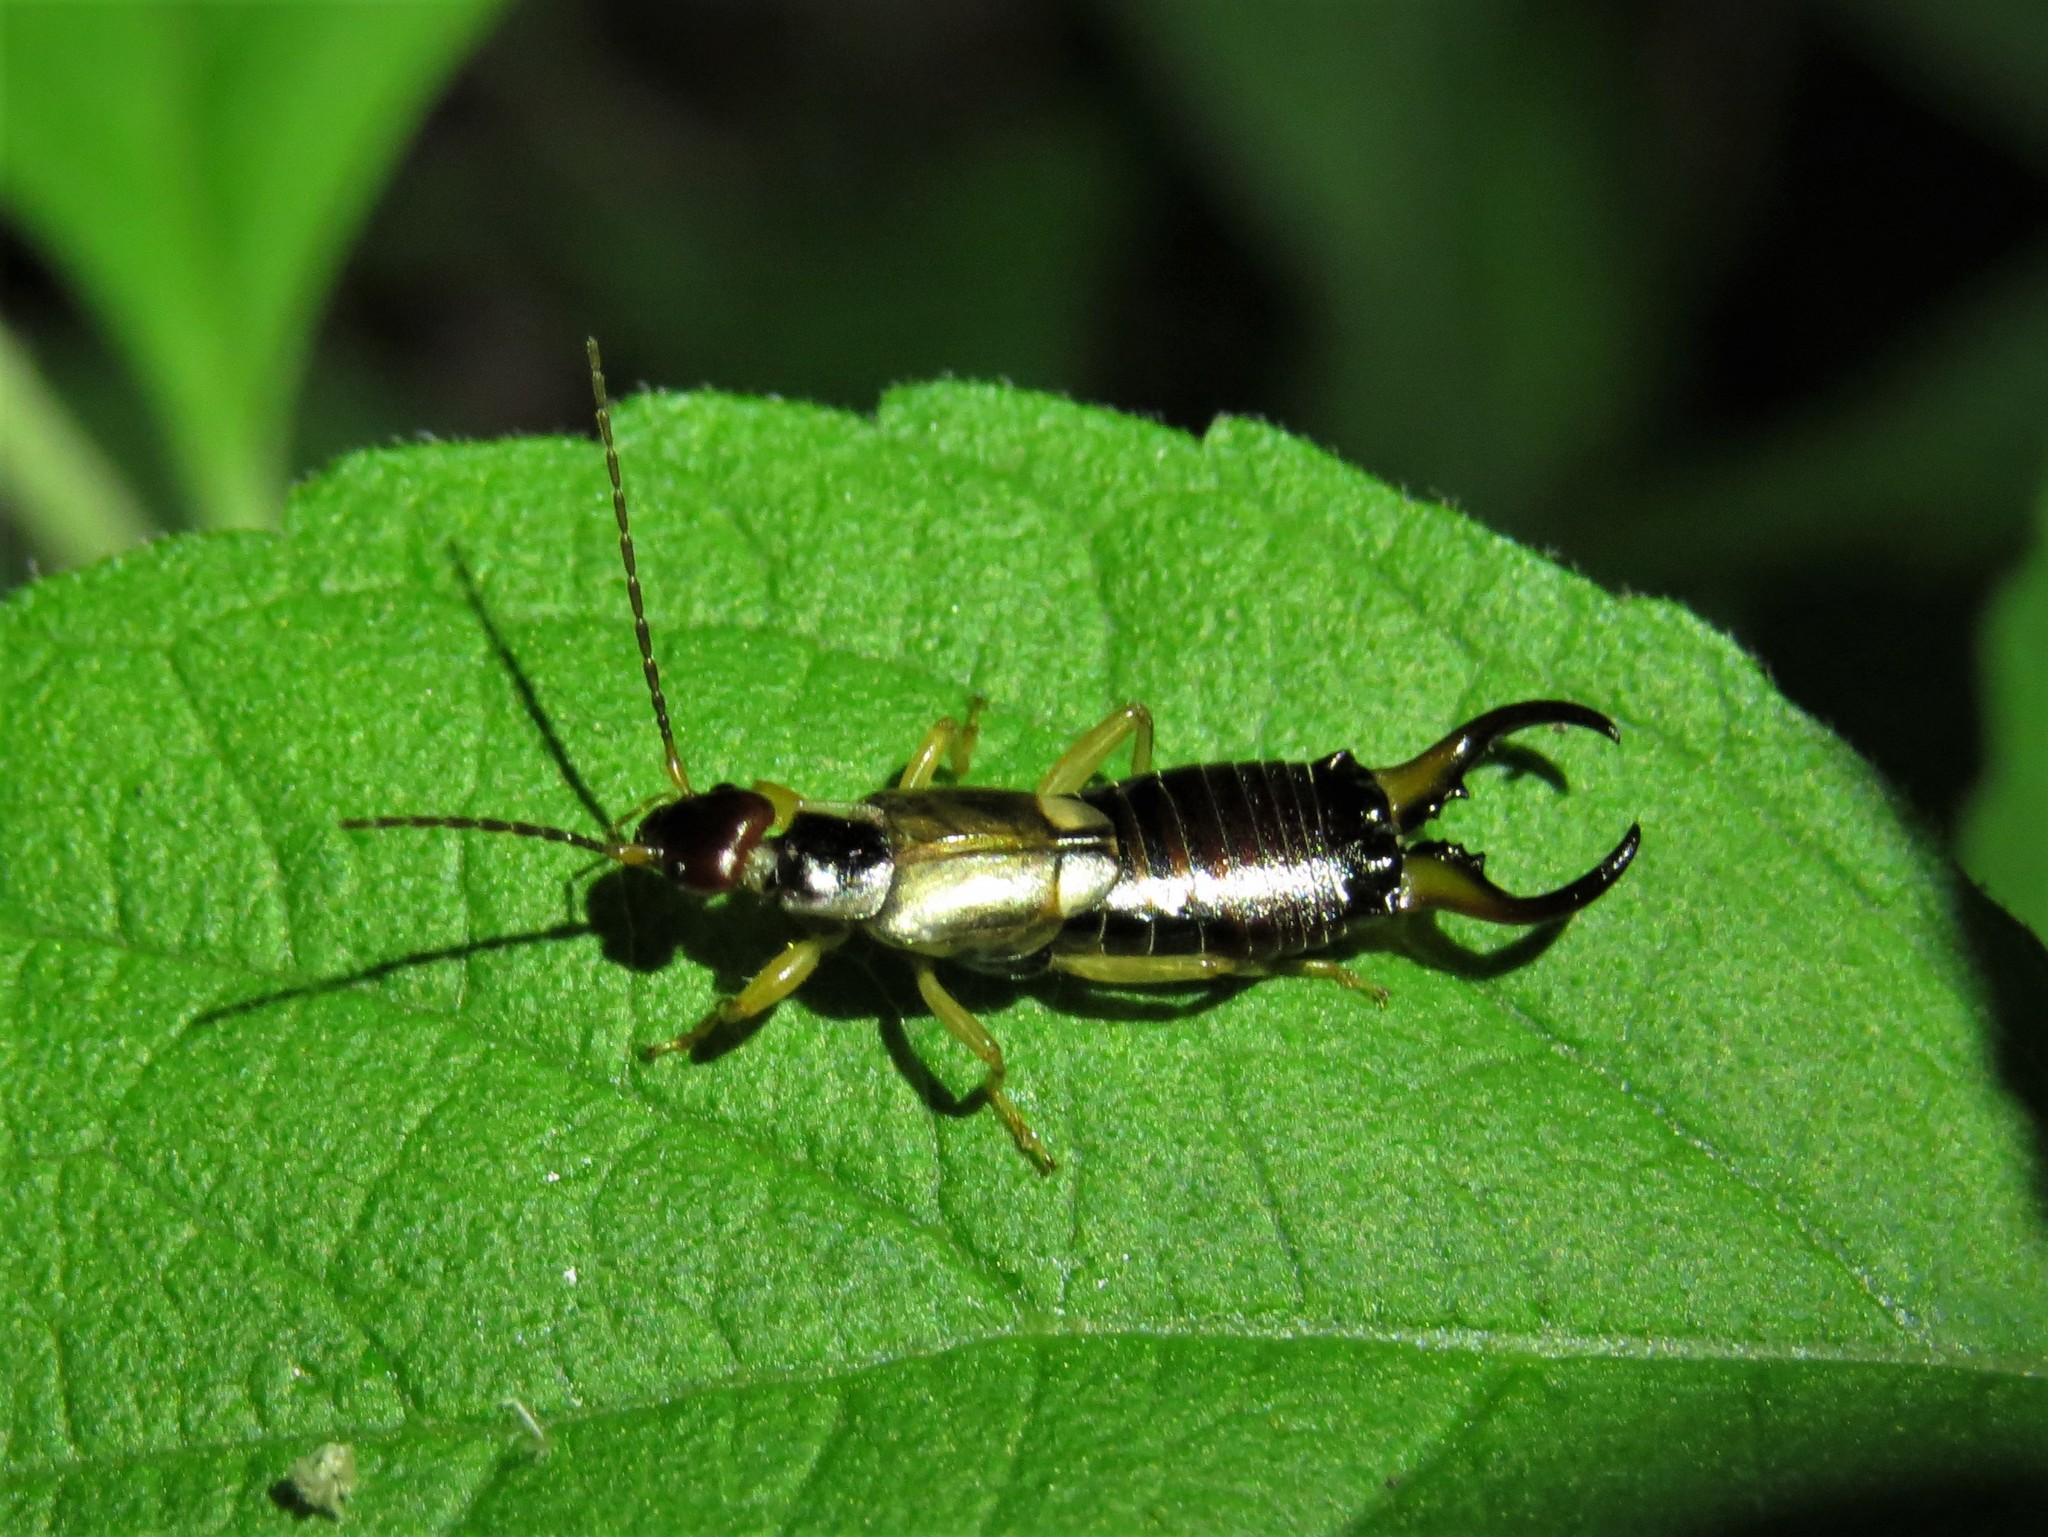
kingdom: Animalia
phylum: Arthropoda
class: Insecta
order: Dermaptera
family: Forficulidae
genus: Forficula
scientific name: Forficula
